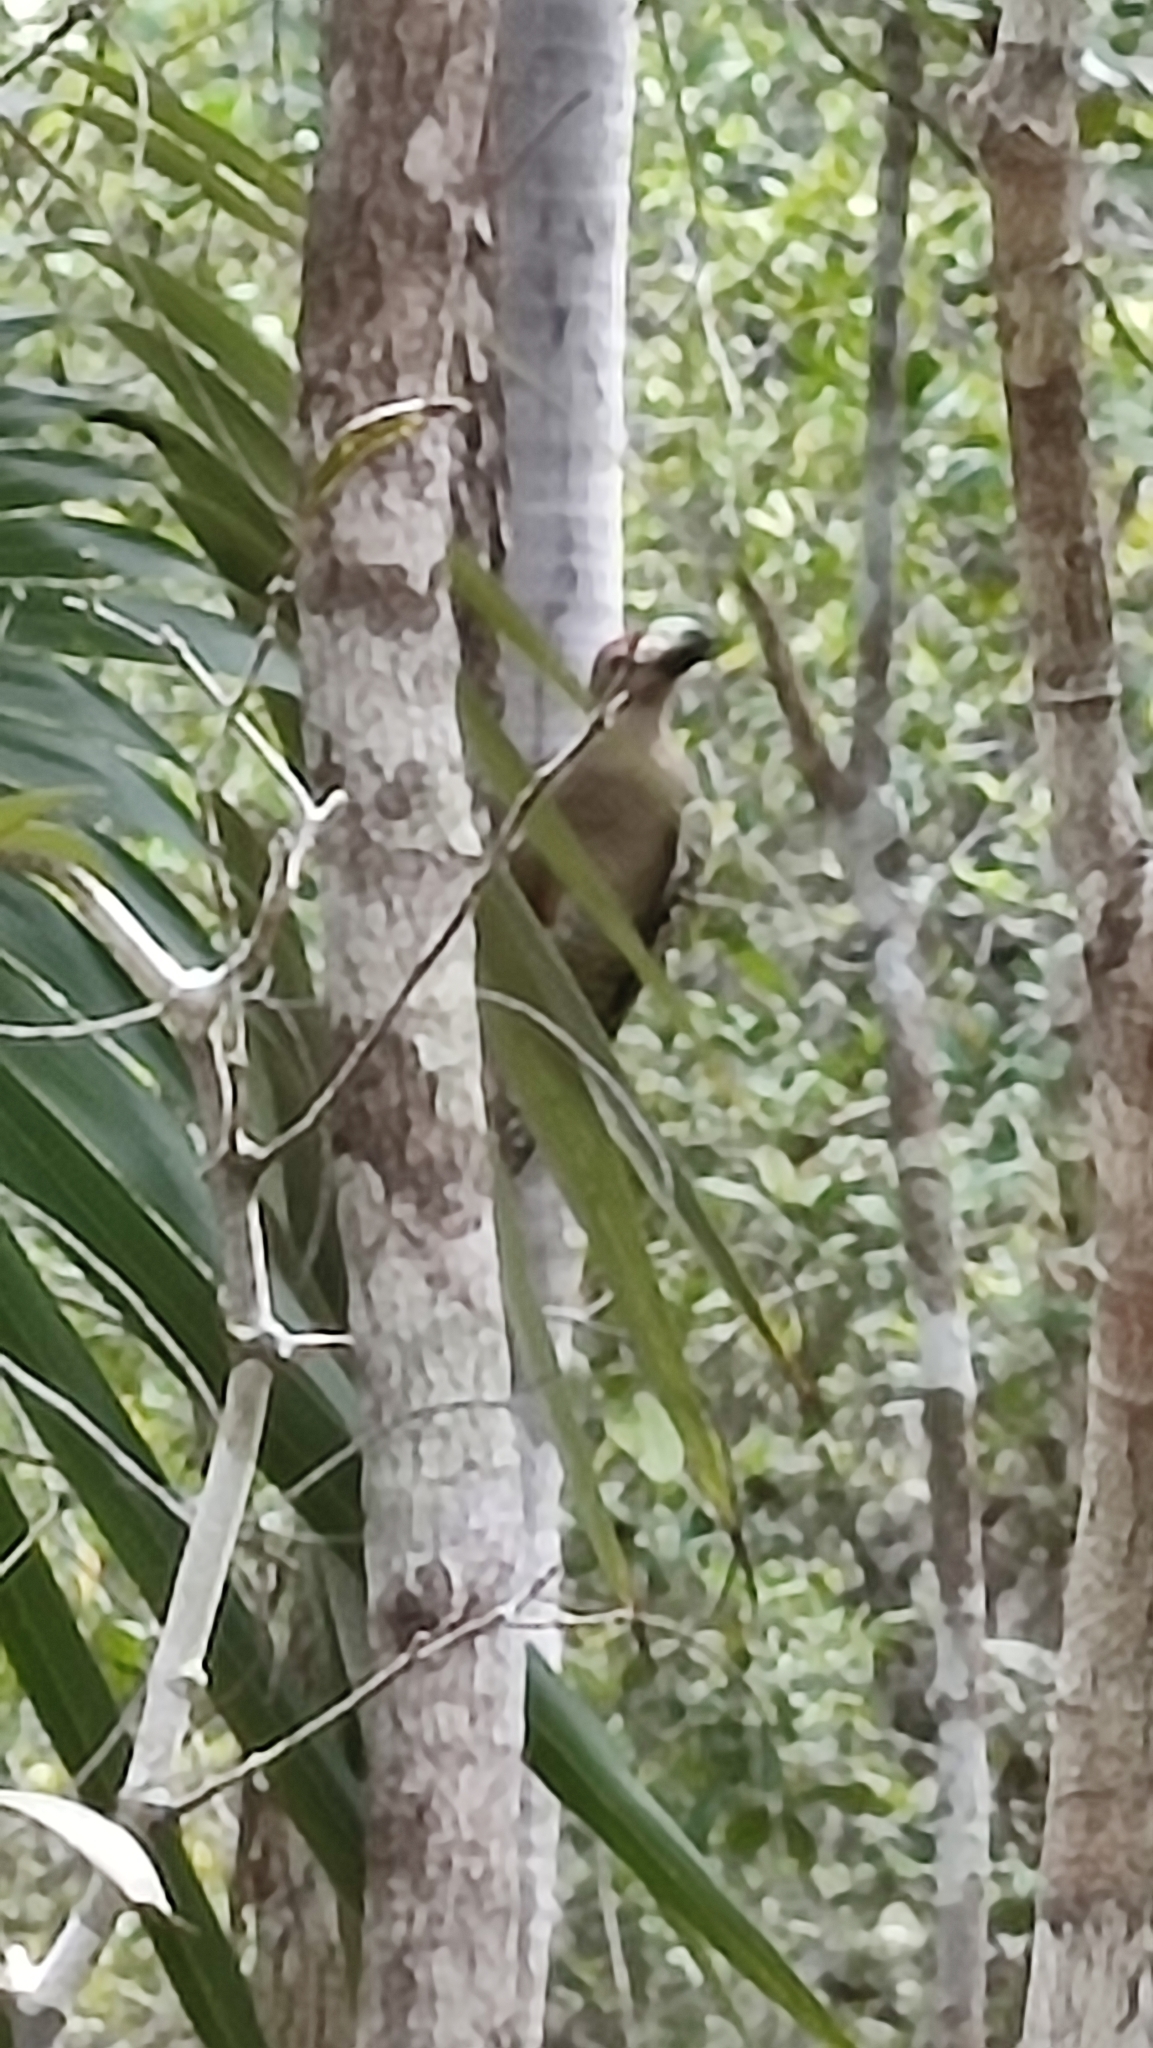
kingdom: Animalia
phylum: Chordata
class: Aves
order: Piciformes
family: Picidae
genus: Melanerpes
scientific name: Melanerpes superciliaris
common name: West indian woodpecker
